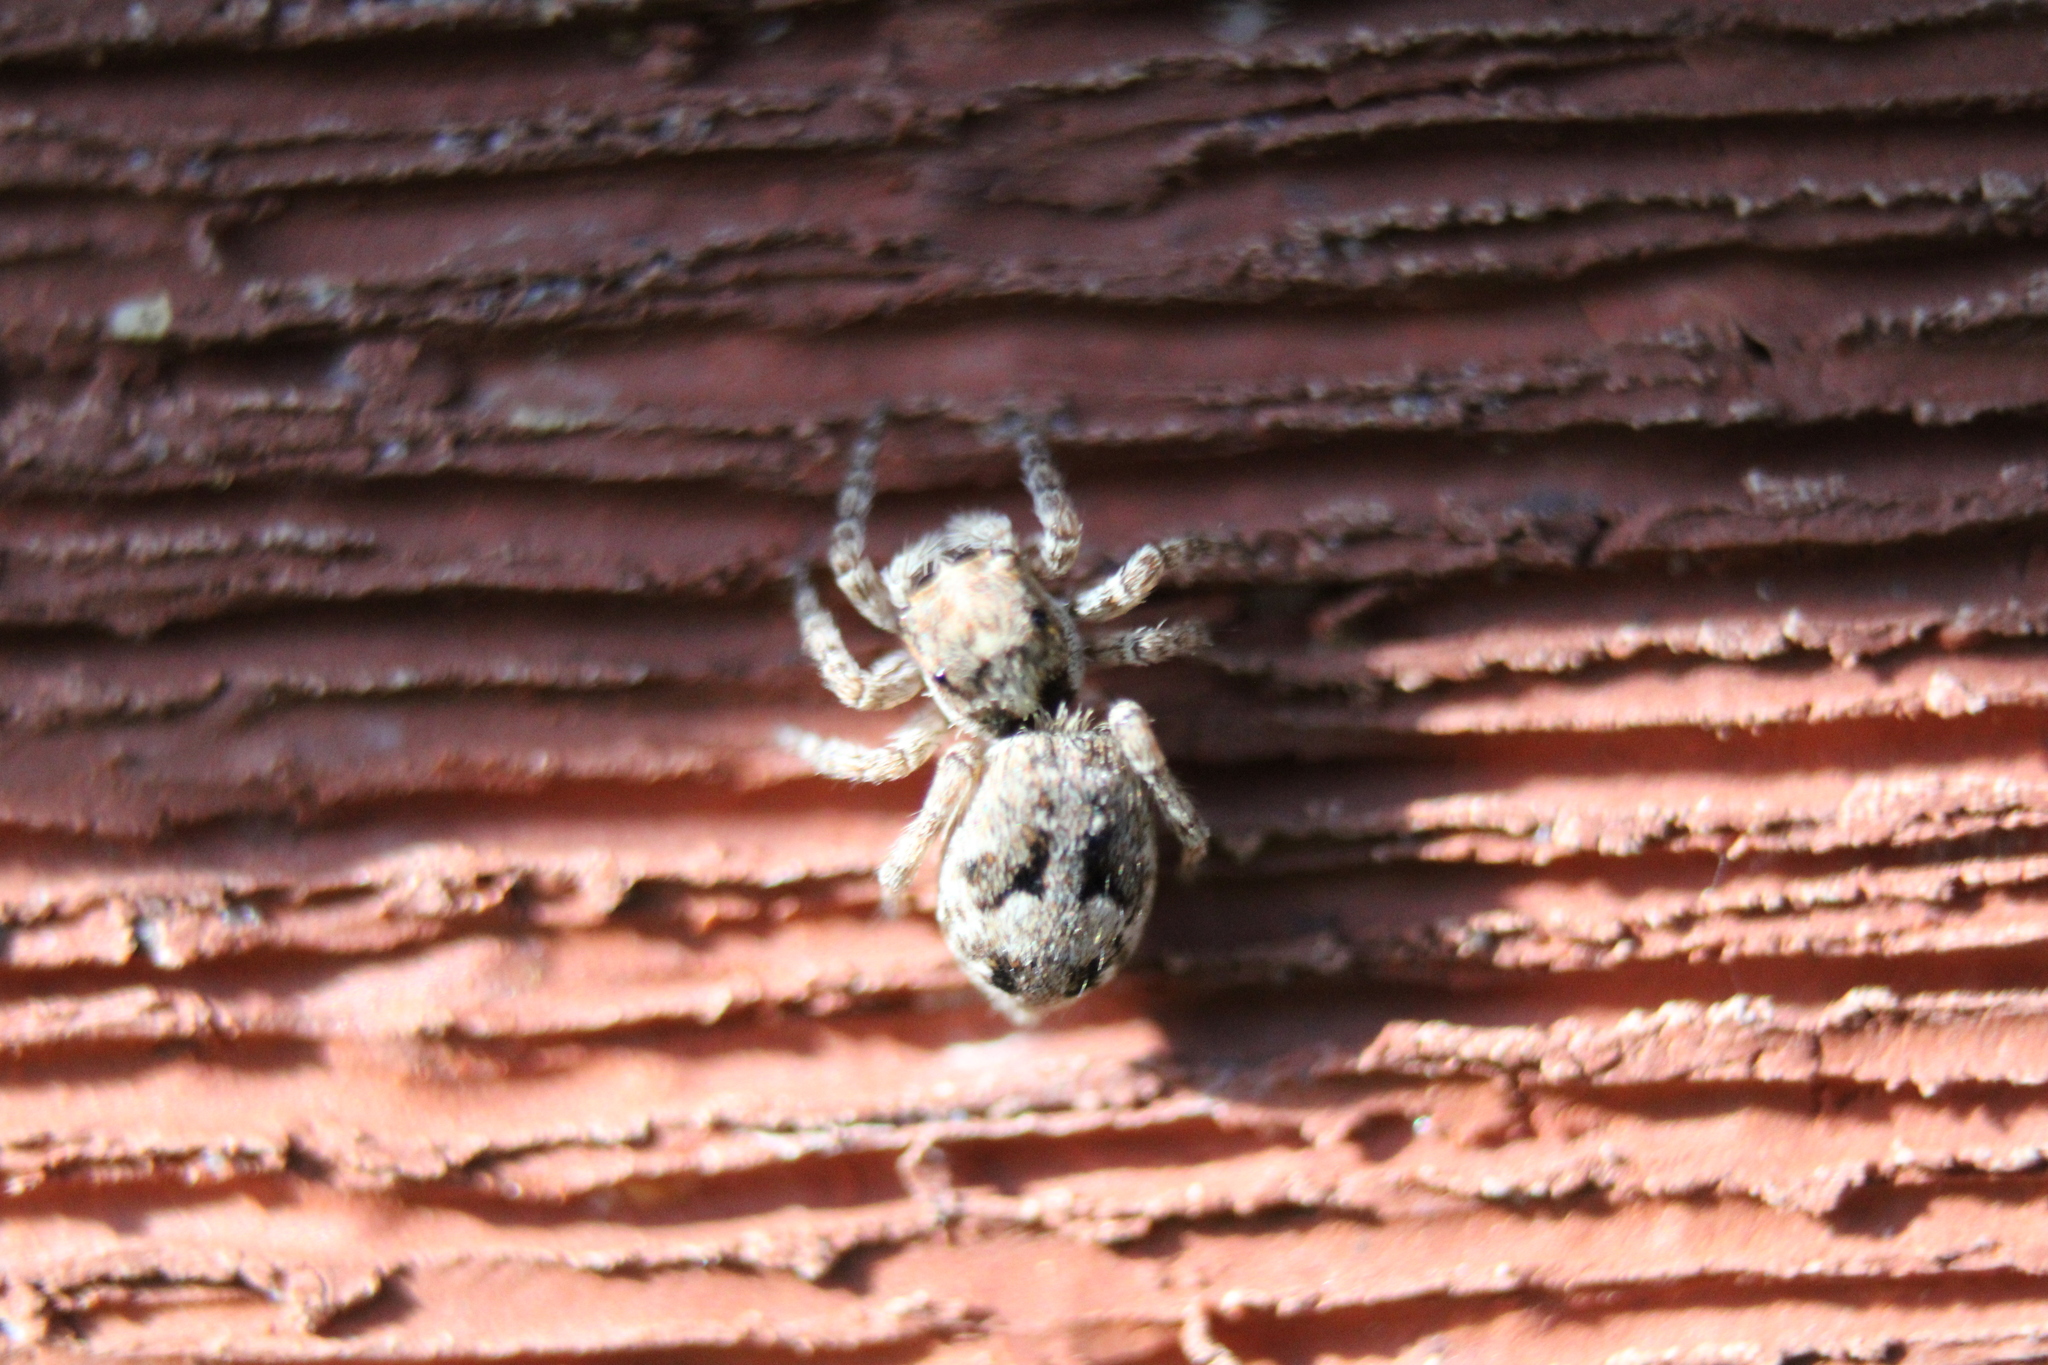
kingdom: Animalia
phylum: Arthropoda
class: Arachnida
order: Araneae
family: Salticidae
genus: Attulus
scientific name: Attulus fasciger
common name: Asiatic wall jumping spider
